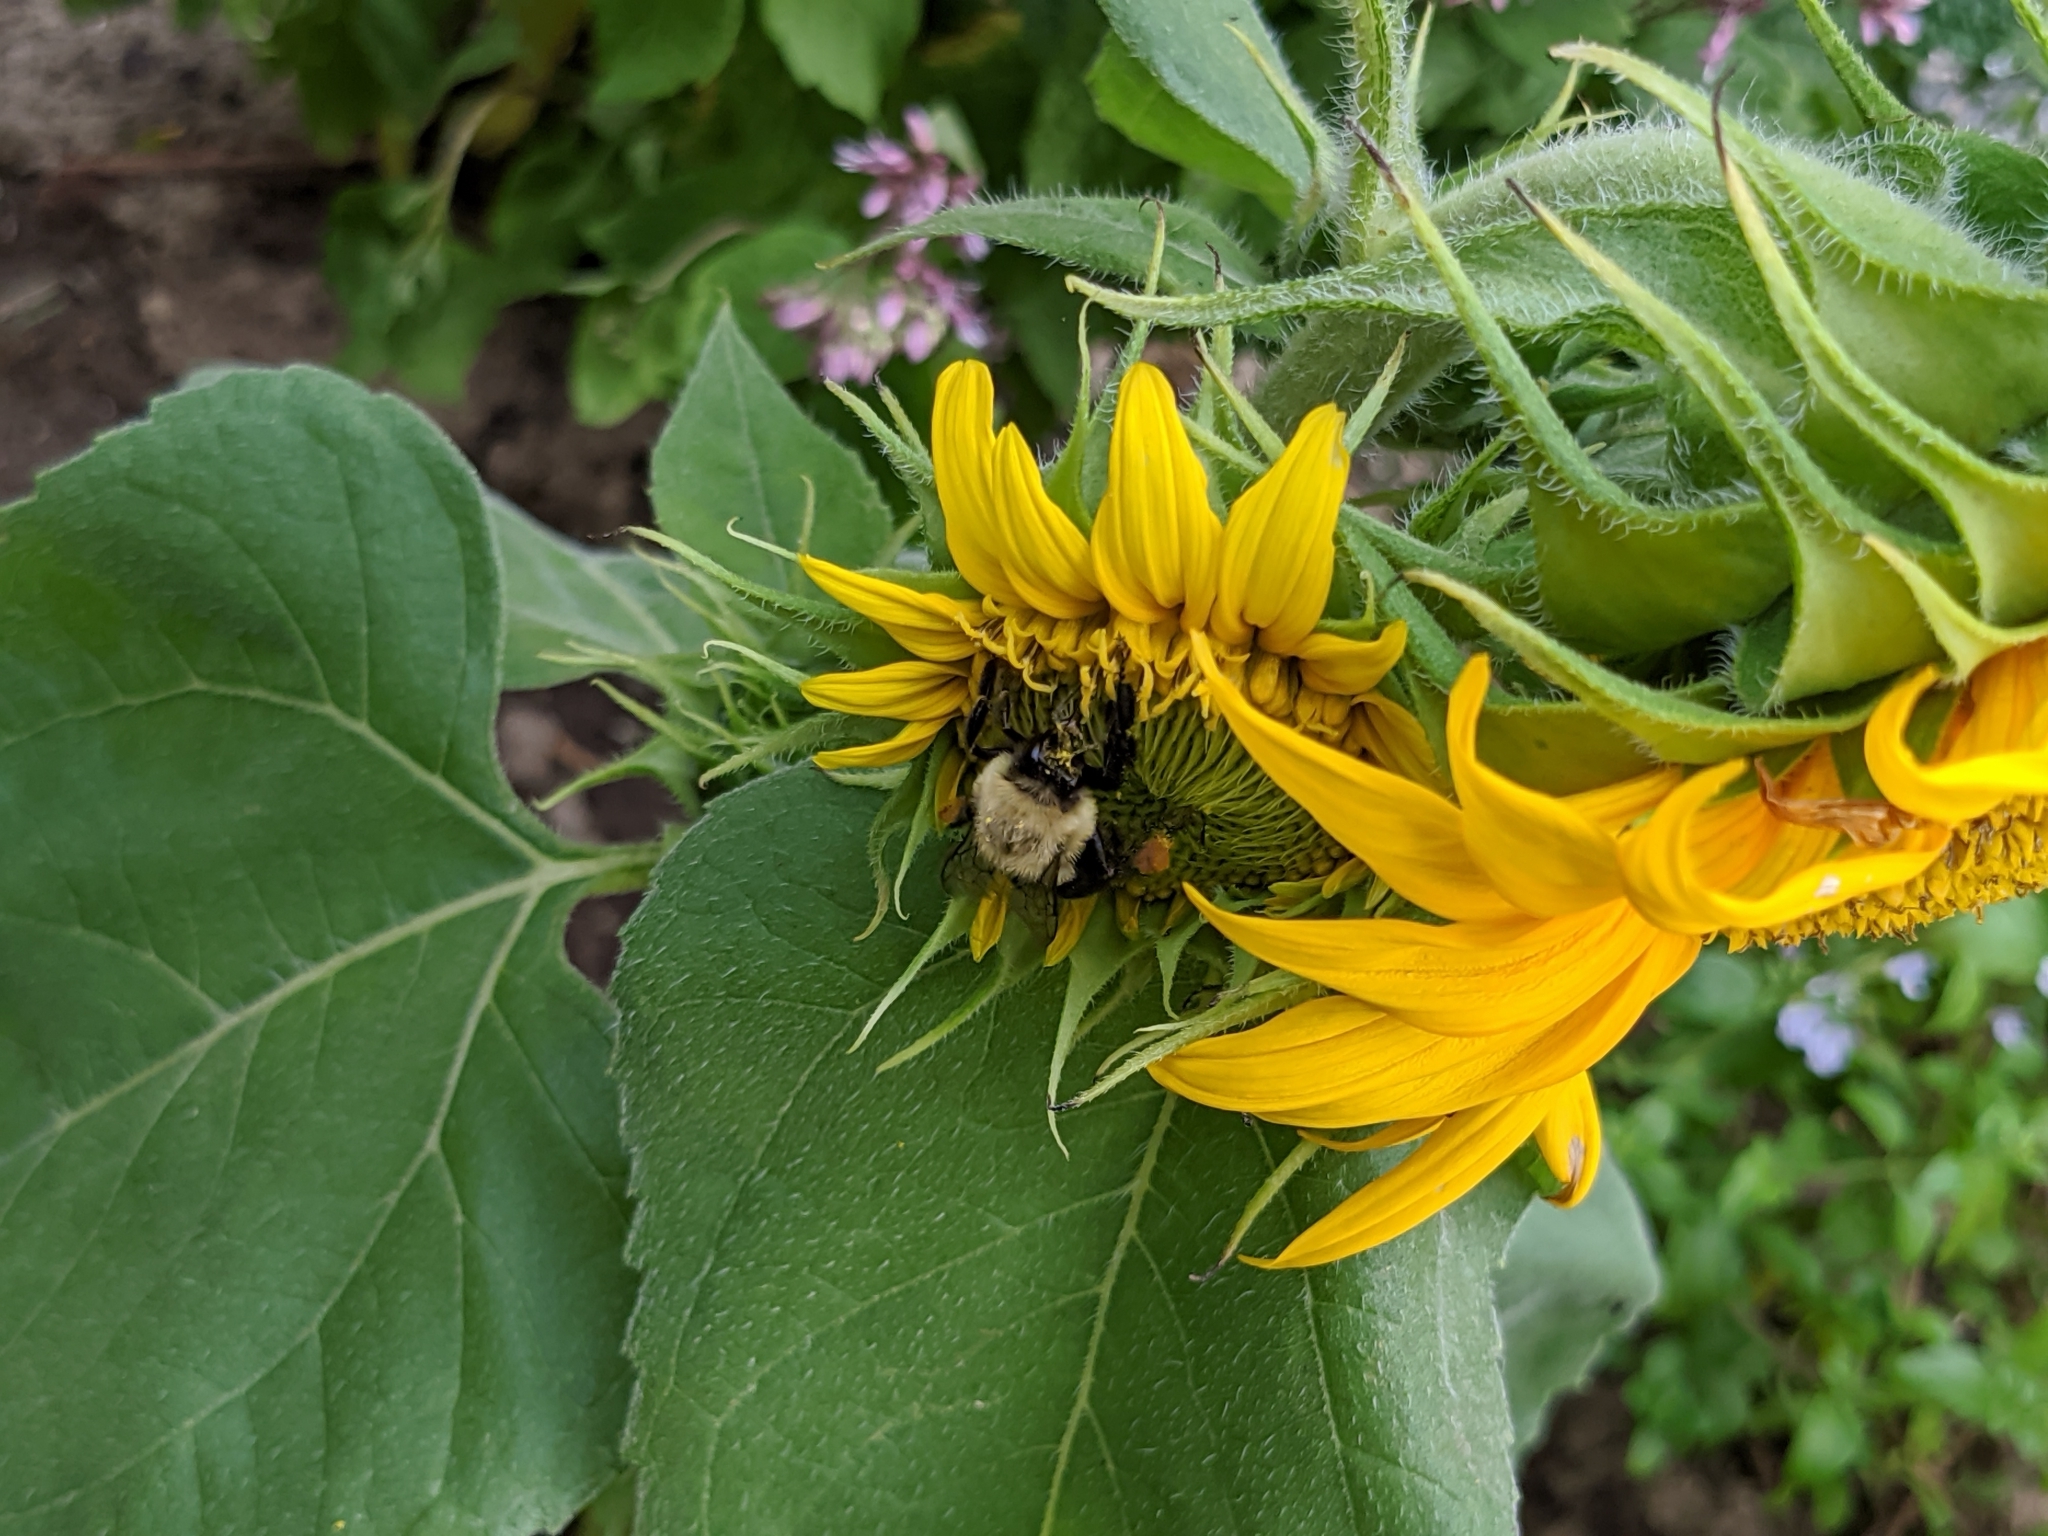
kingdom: Animalia
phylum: Arthropoda
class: Insecta
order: Hymenoptera
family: Apidae
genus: Bombus
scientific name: Bombus impatiens
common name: Common eastern bumble bee
